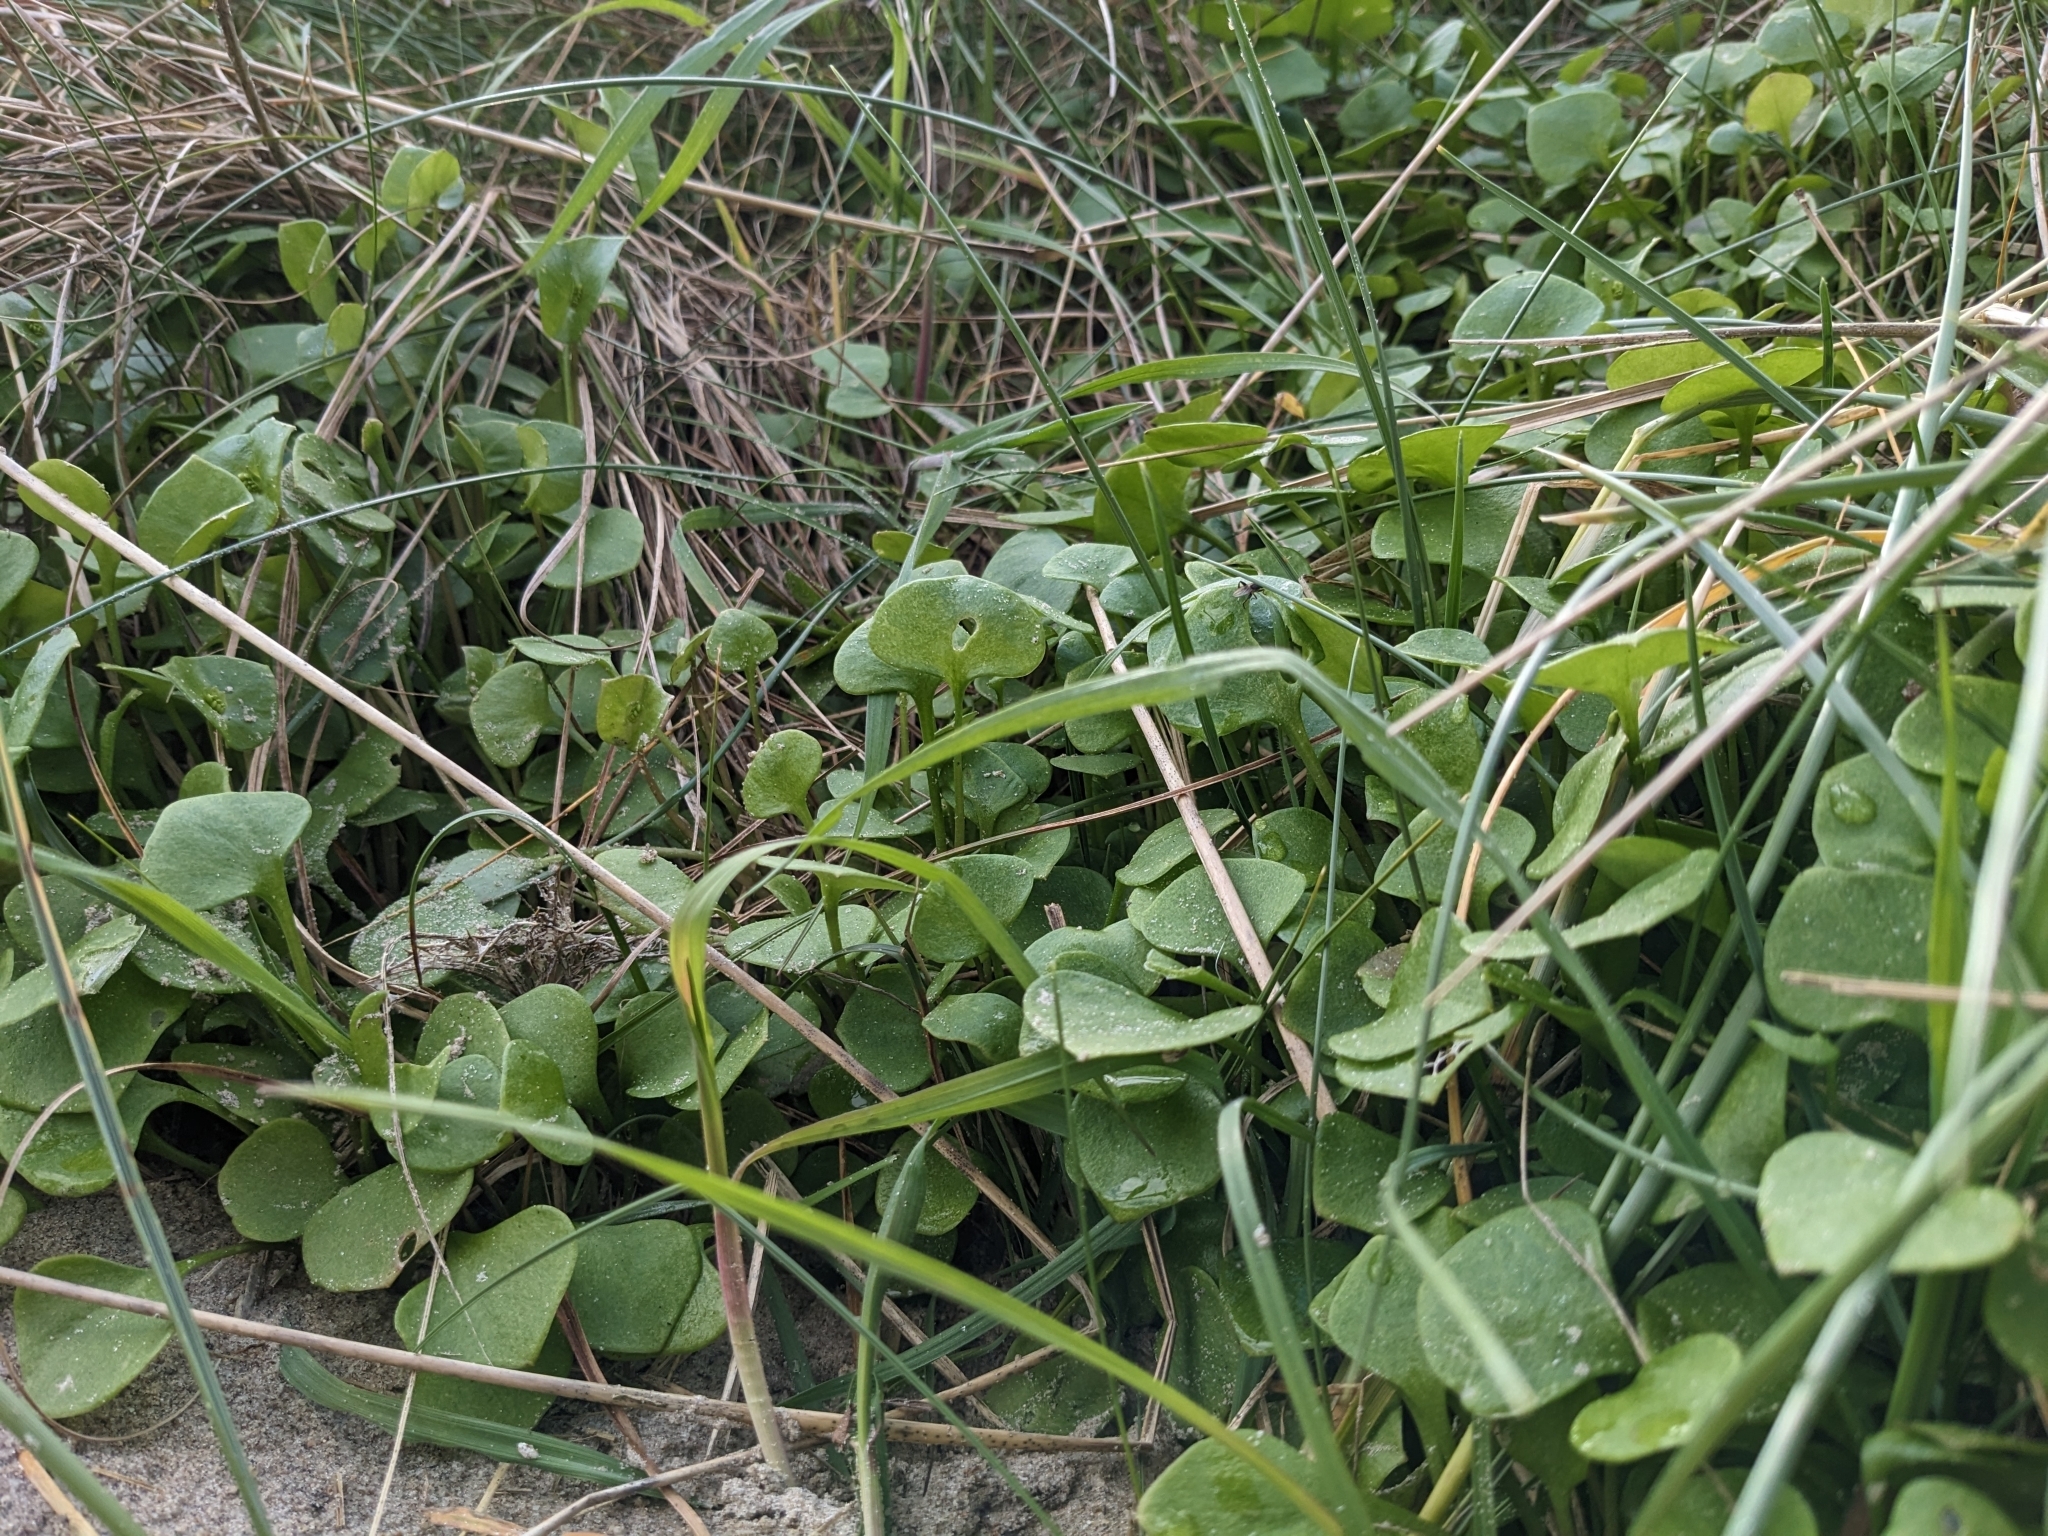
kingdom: Plantae
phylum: Tracheophyta
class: Magnoliopsida
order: Caryophyllales
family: Montiaceae
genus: Claytonia
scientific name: Claytonia perfoliata
